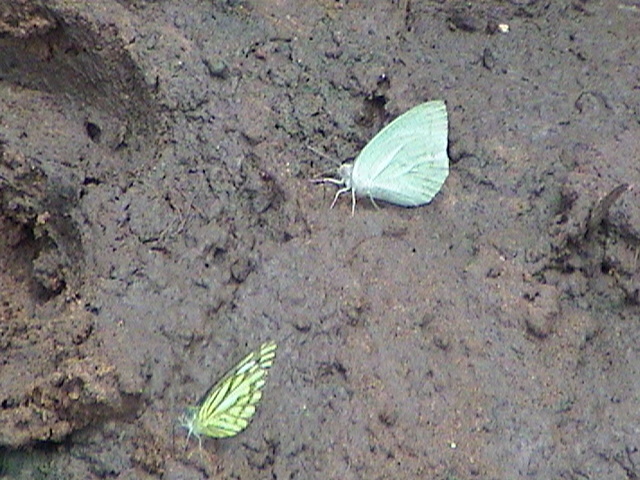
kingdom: Animalia
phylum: Arthropoda
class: Insecta
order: Lepidoptera
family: Pieridae
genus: Cepora
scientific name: Cepora nerissa
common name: Common gull
